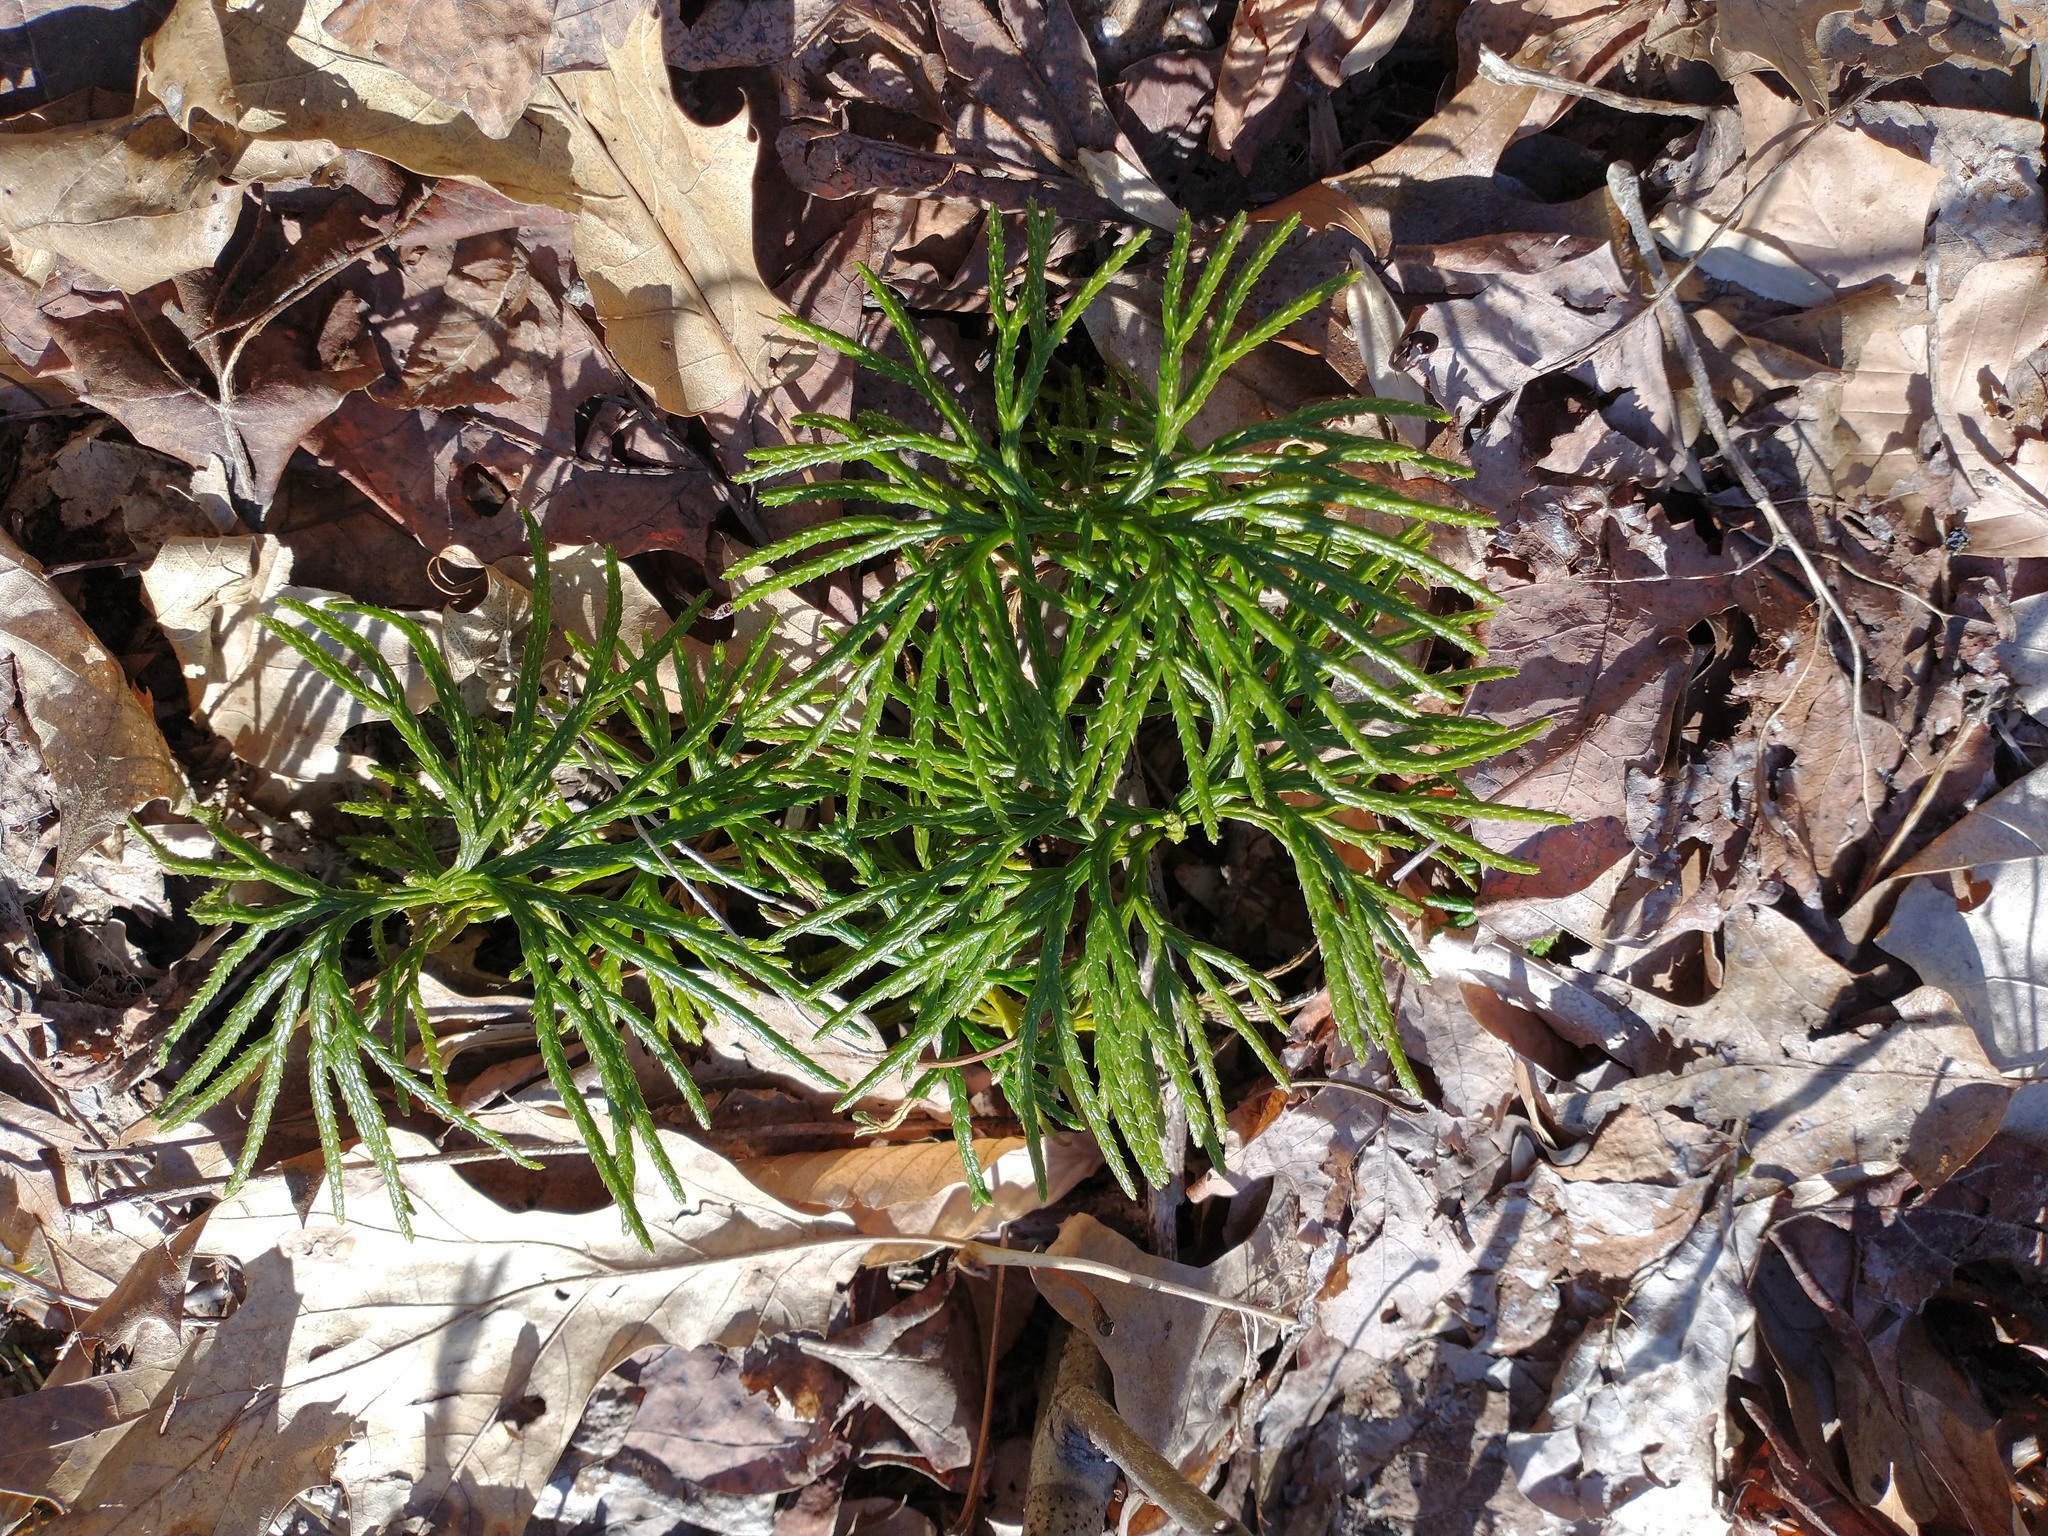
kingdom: Plantae
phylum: Tracheophyta
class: Lycopodiopsida
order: Lycopodiales
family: Lycopodiaceae
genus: Diphasiastrum
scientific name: Diphasiastrum digitatum
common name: Southern running-pine
